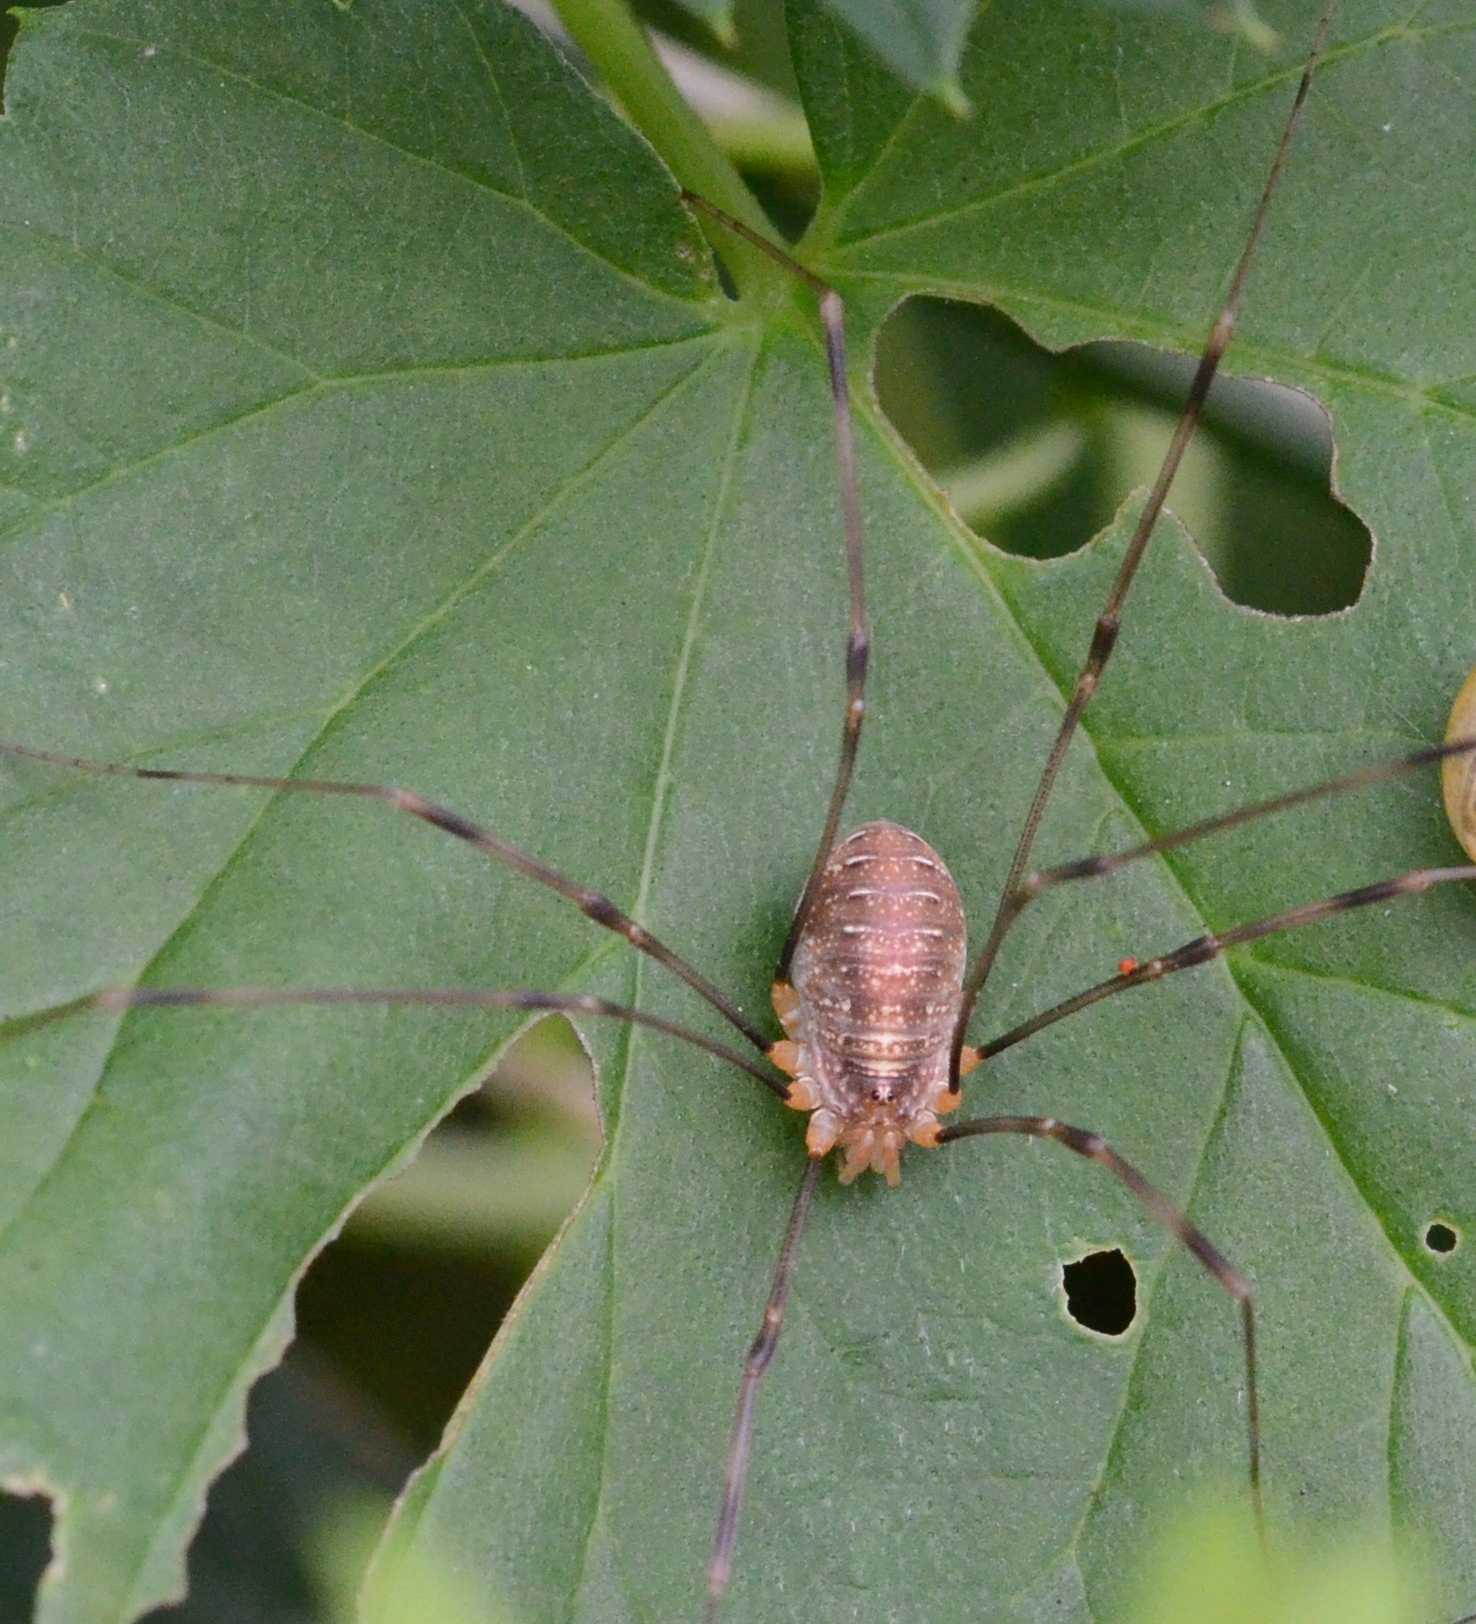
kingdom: Animalia
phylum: Arthropoda
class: Arachnida
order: Opiliones
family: Phalangiidae
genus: Opilio
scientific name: Opilio canestrinii
